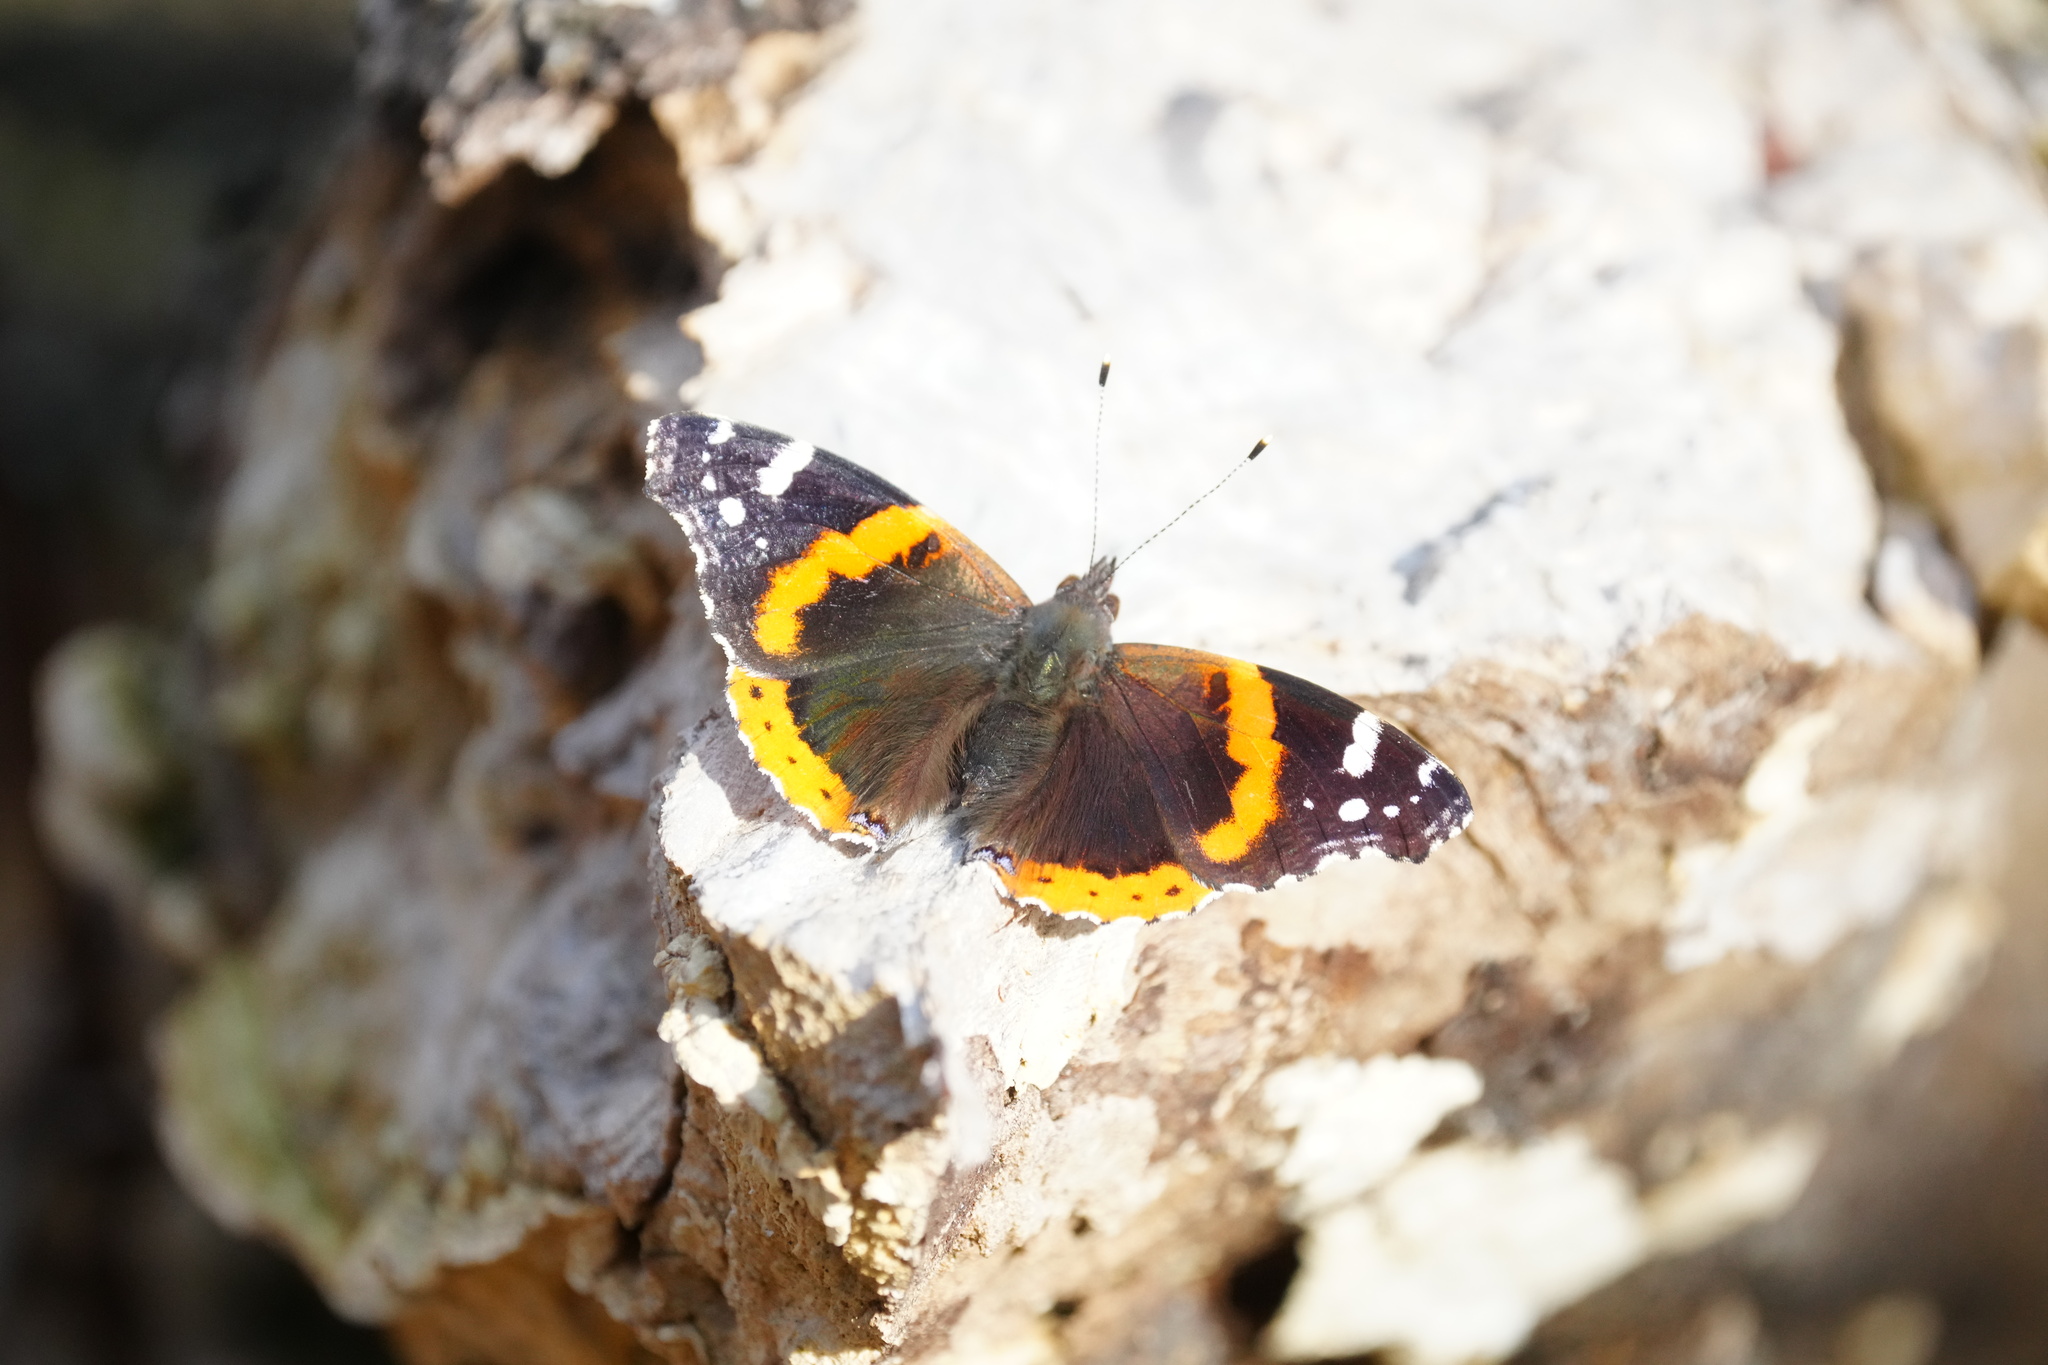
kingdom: Animalia
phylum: Arthropoda
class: Insecta
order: Lepidoptera
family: Nymphalidae
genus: Vanessa
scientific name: Vanessa atalanta
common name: Red admiral
